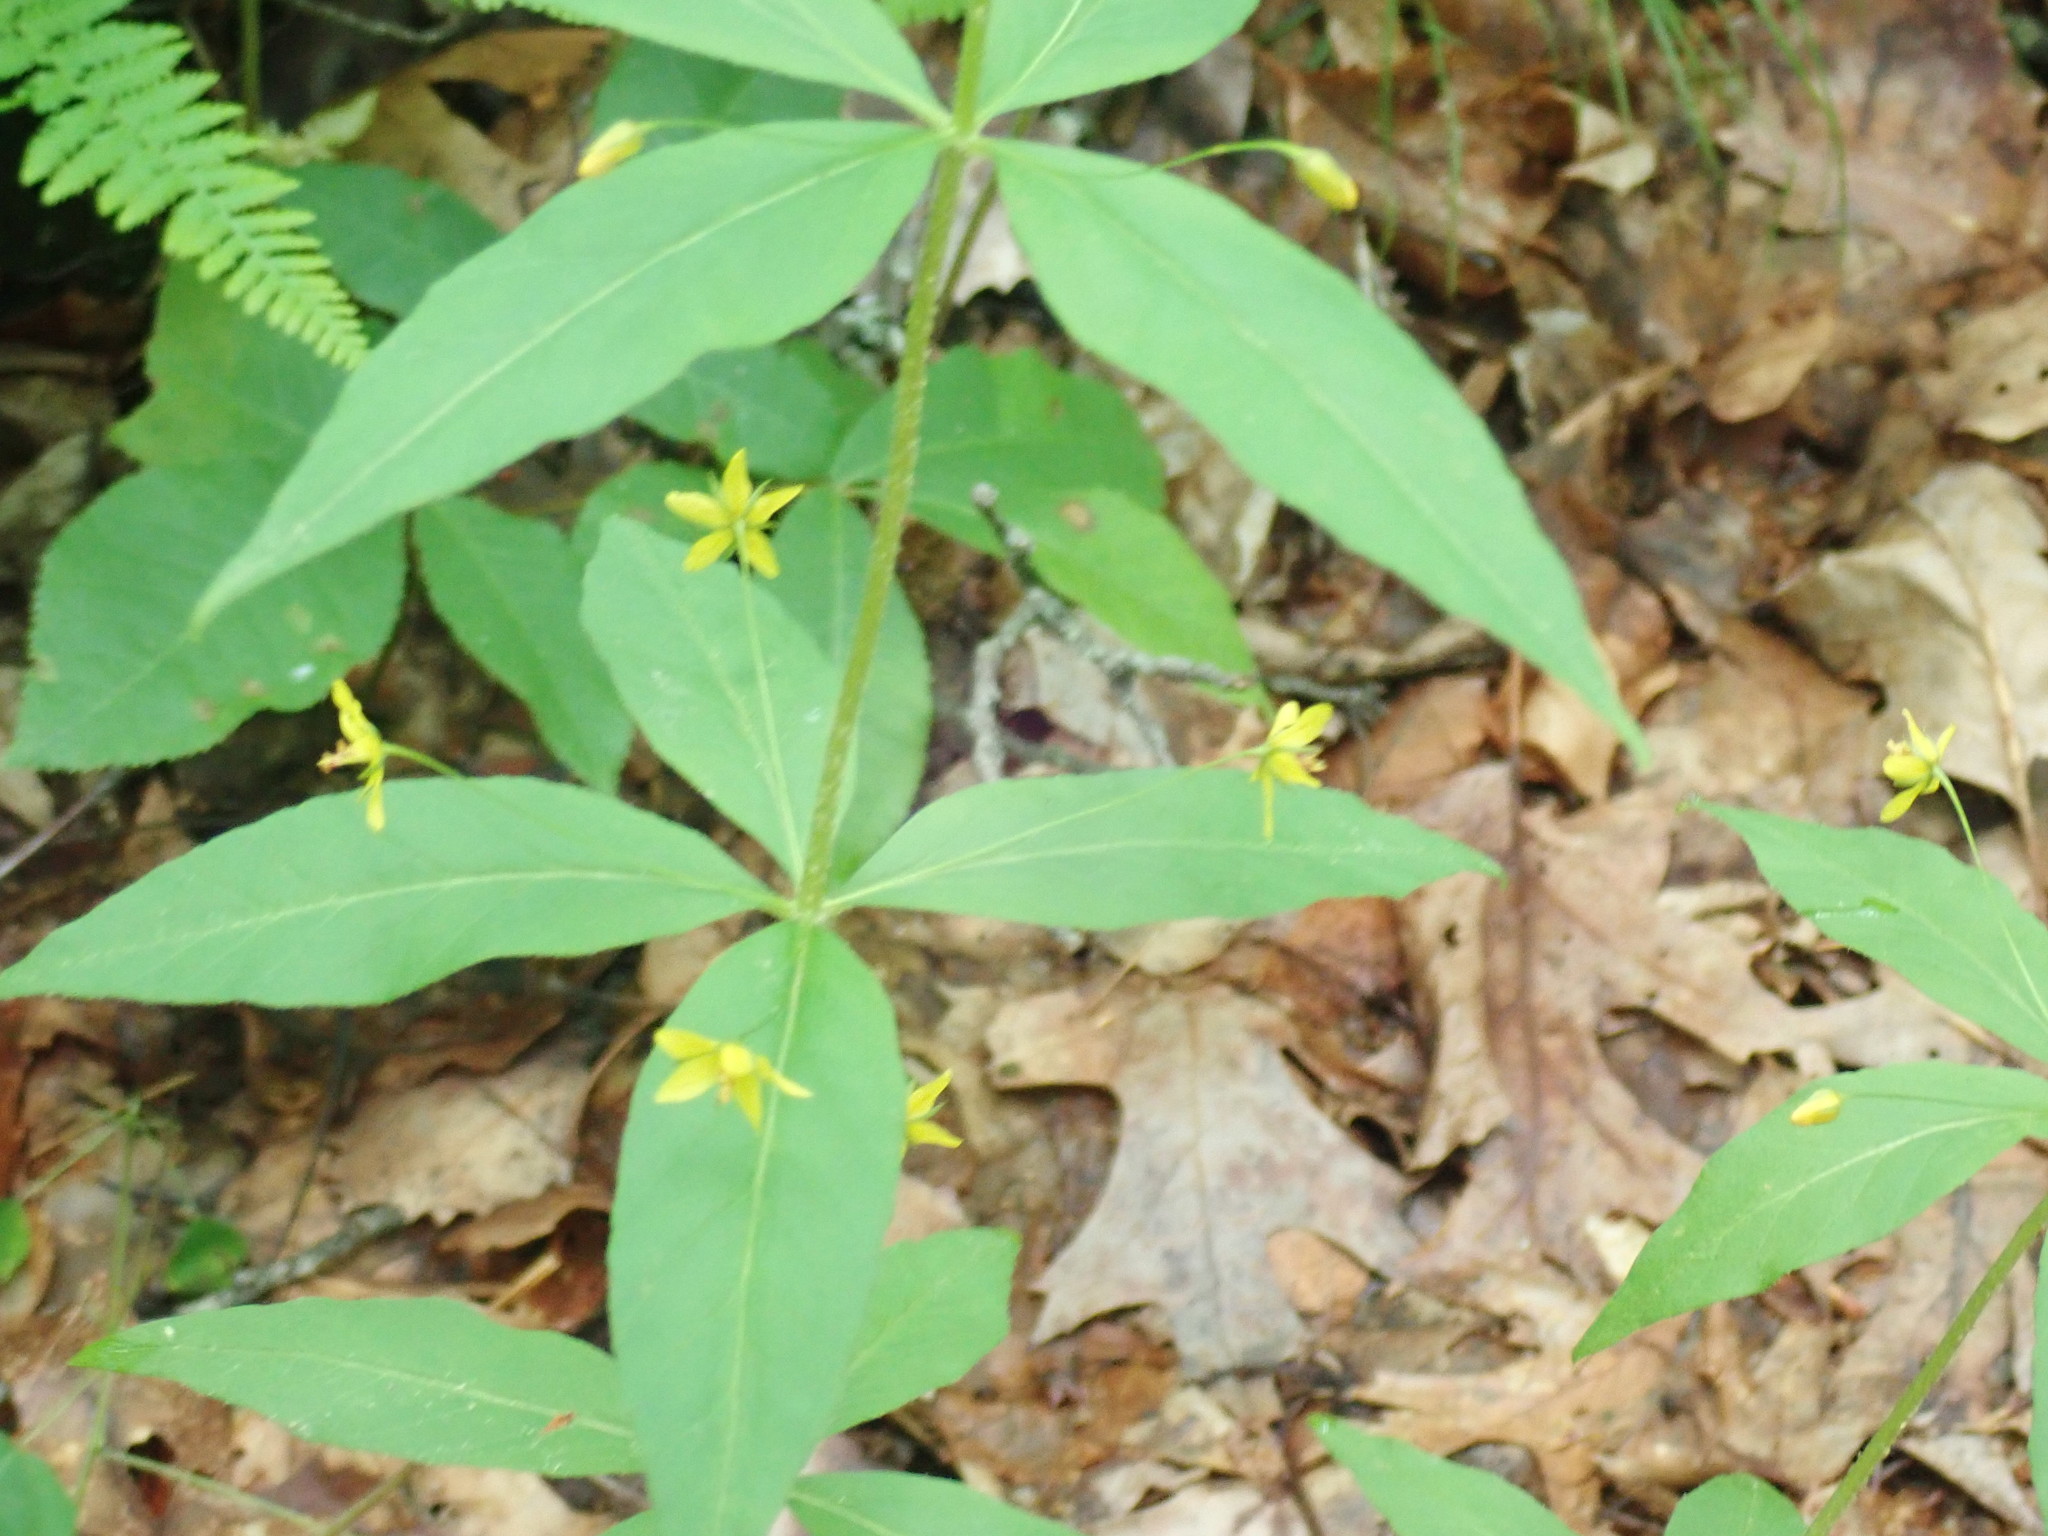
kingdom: Plantae
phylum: Tracheophyta
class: Magnoliopsida
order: Ericales
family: Primulaceae
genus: Lysimachia
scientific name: Lysimachia quadrifolia
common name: Whorled loosestrife
